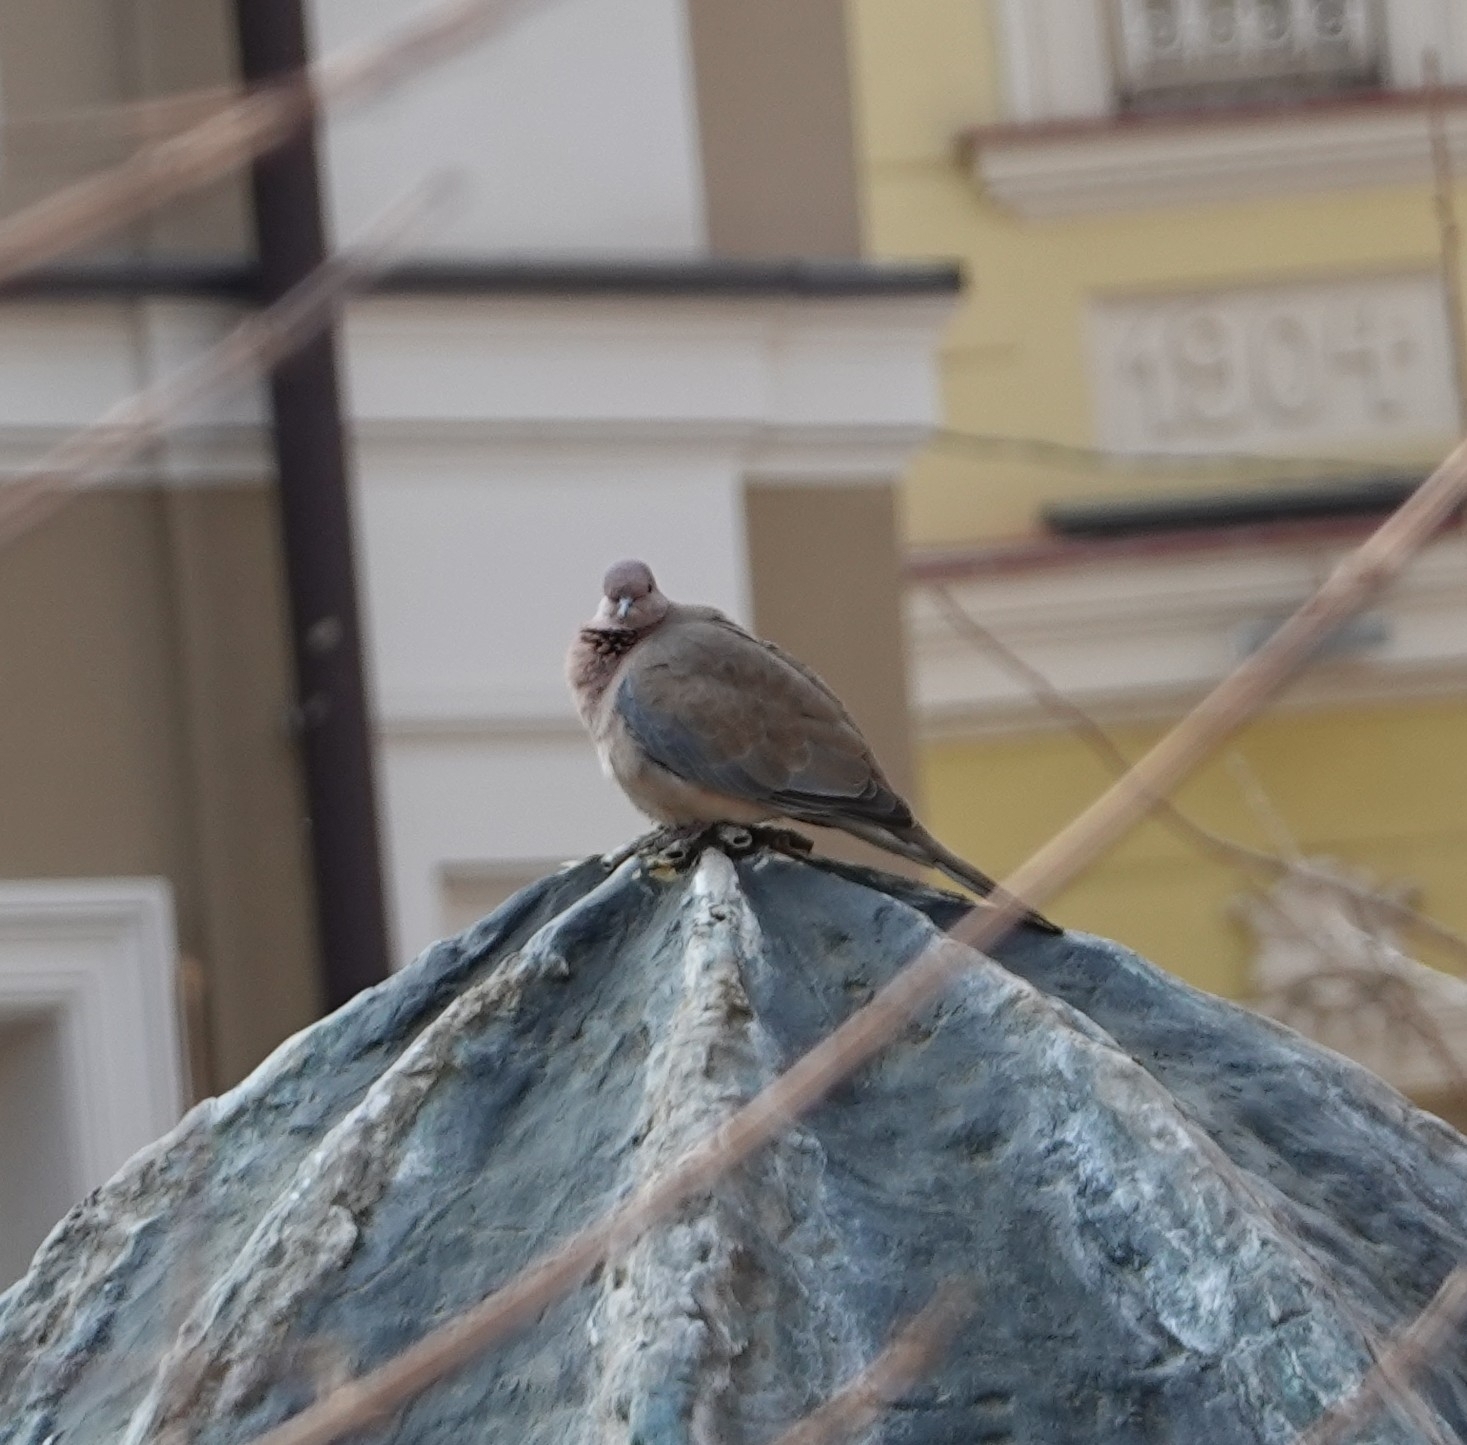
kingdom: Animalia
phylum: Chordata
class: Aves
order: Columbiformes
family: Columbidae
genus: Spilopelia
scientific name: Spilopelia senegalensis
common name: Laughing dove
